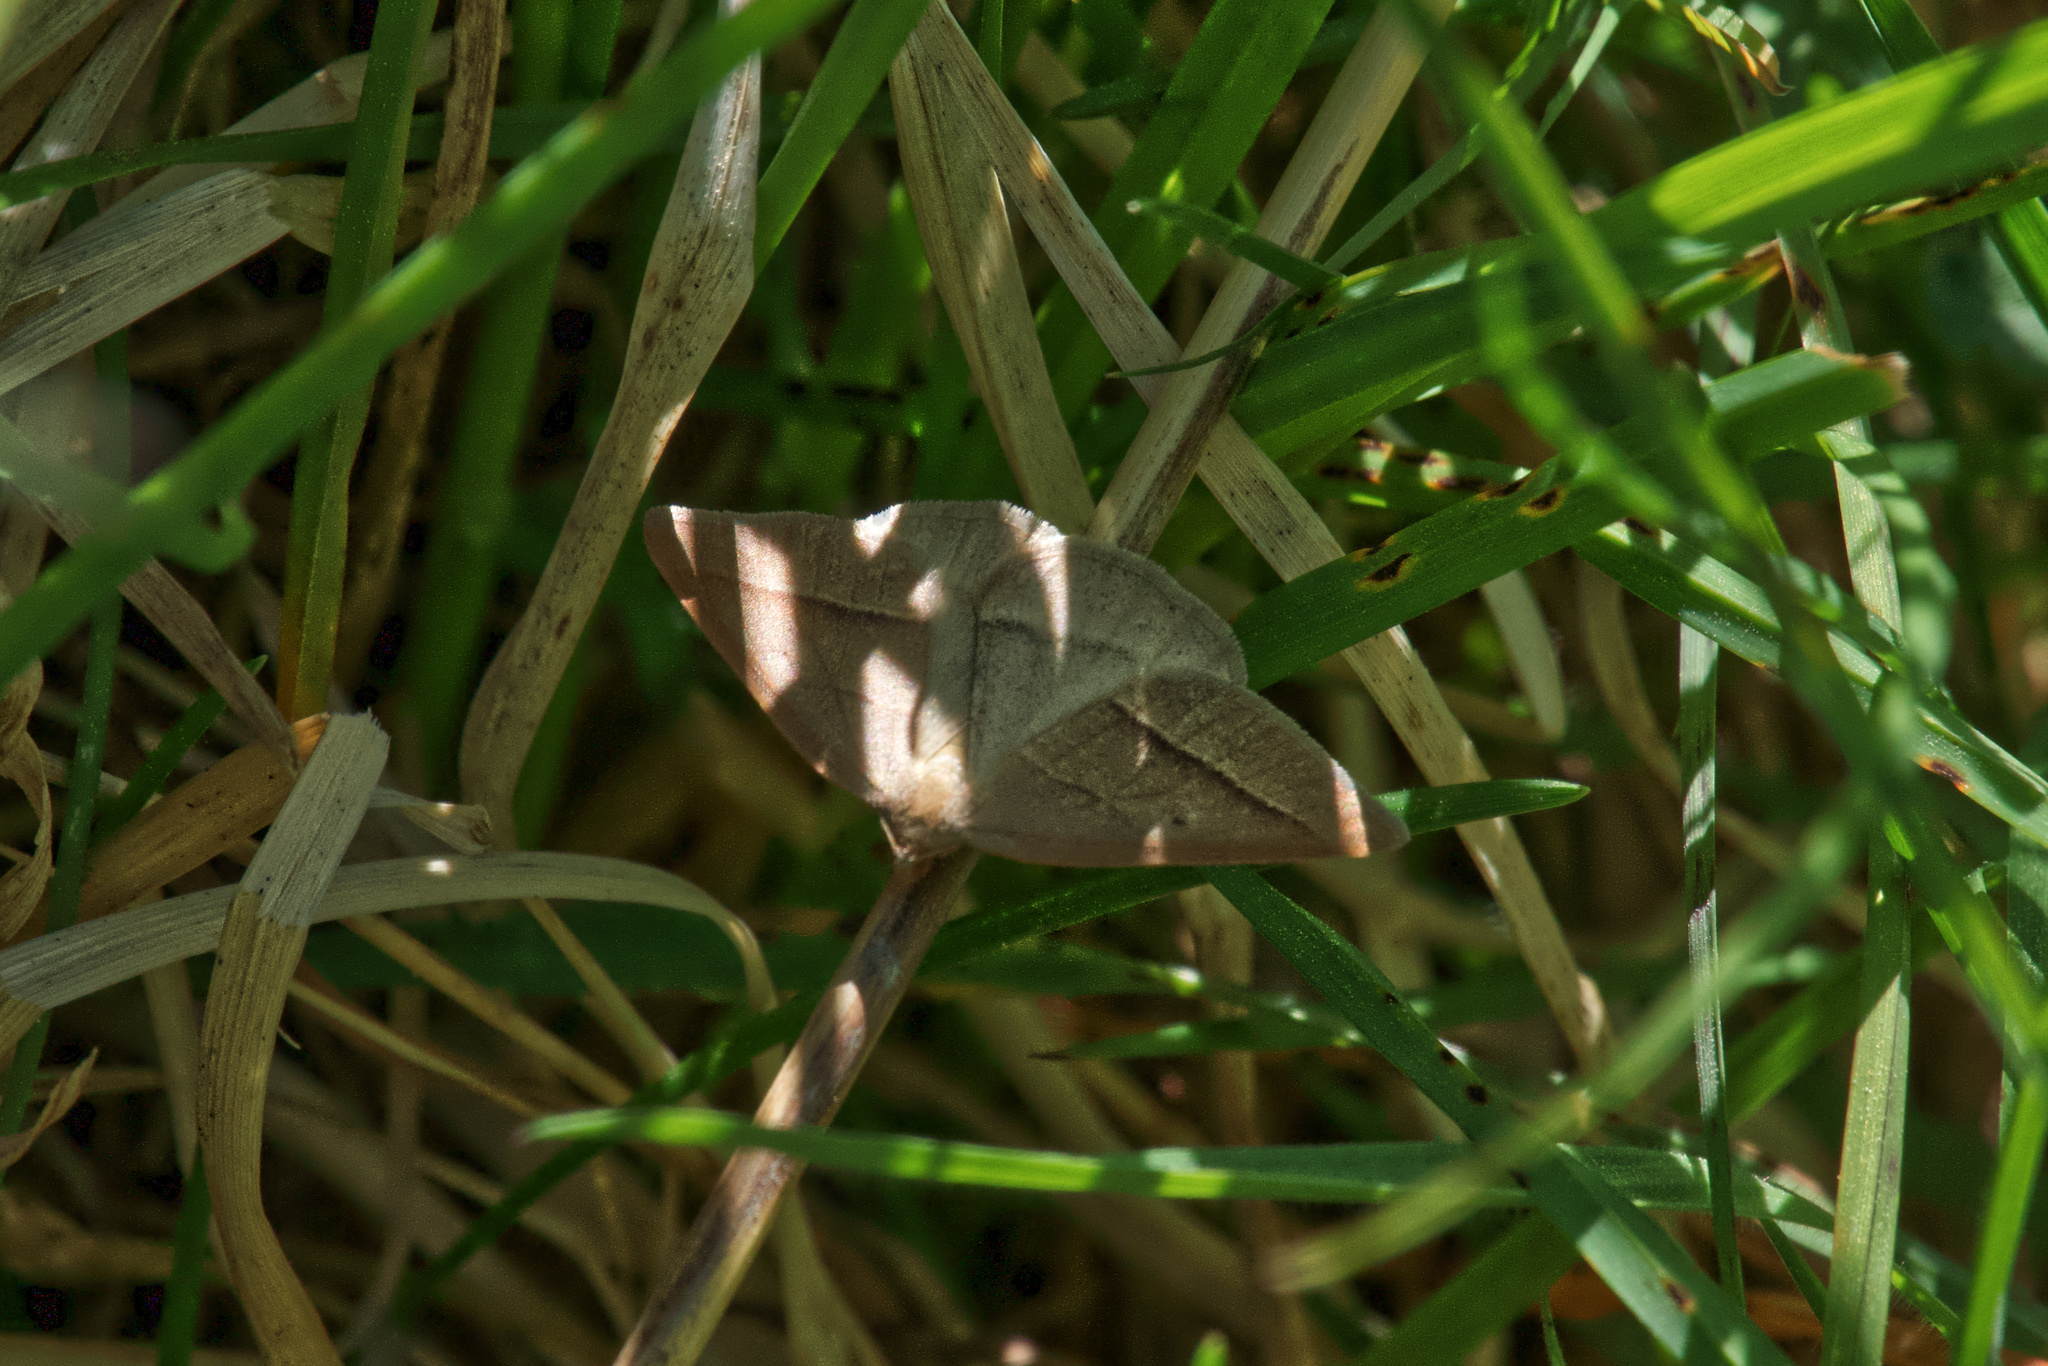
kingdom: Animalia
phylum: Arthropoda
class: Insecta
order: Lepidoptera
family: Pterophoridae
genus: Pterophorus
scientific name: Pterophorus Petrophora chlorosata
